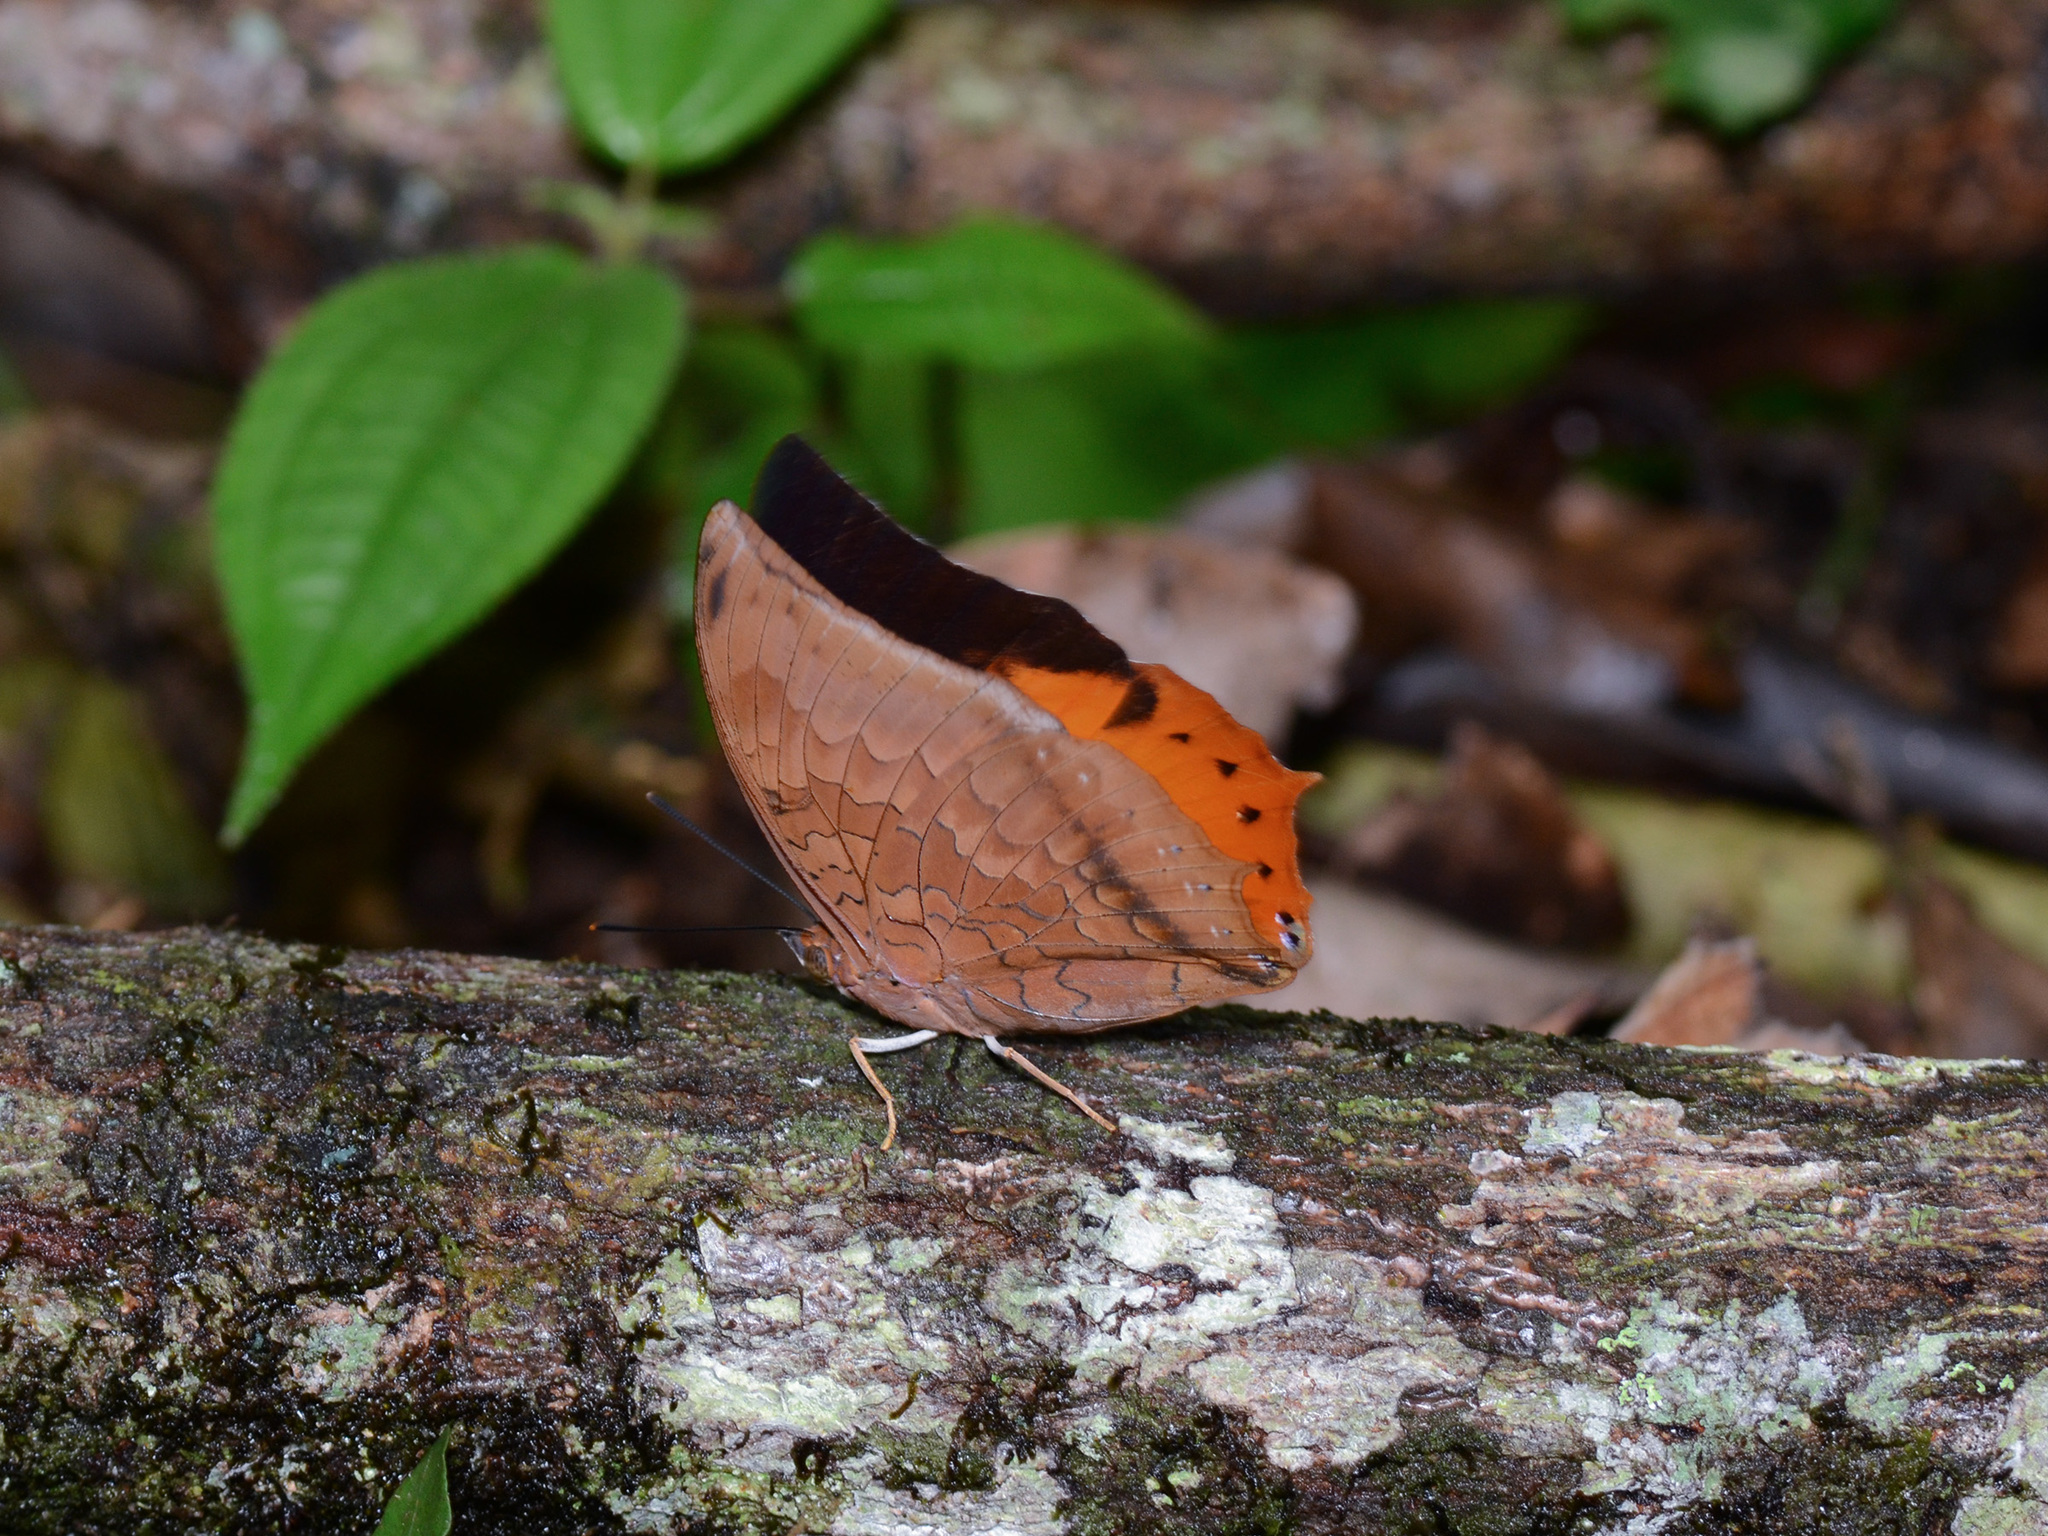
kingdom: Animalia
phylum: Arthropoda
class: Insecta
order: Lepidoptera
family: Nymphalidae
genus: Charaxes
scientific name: Charaxes bernardus
